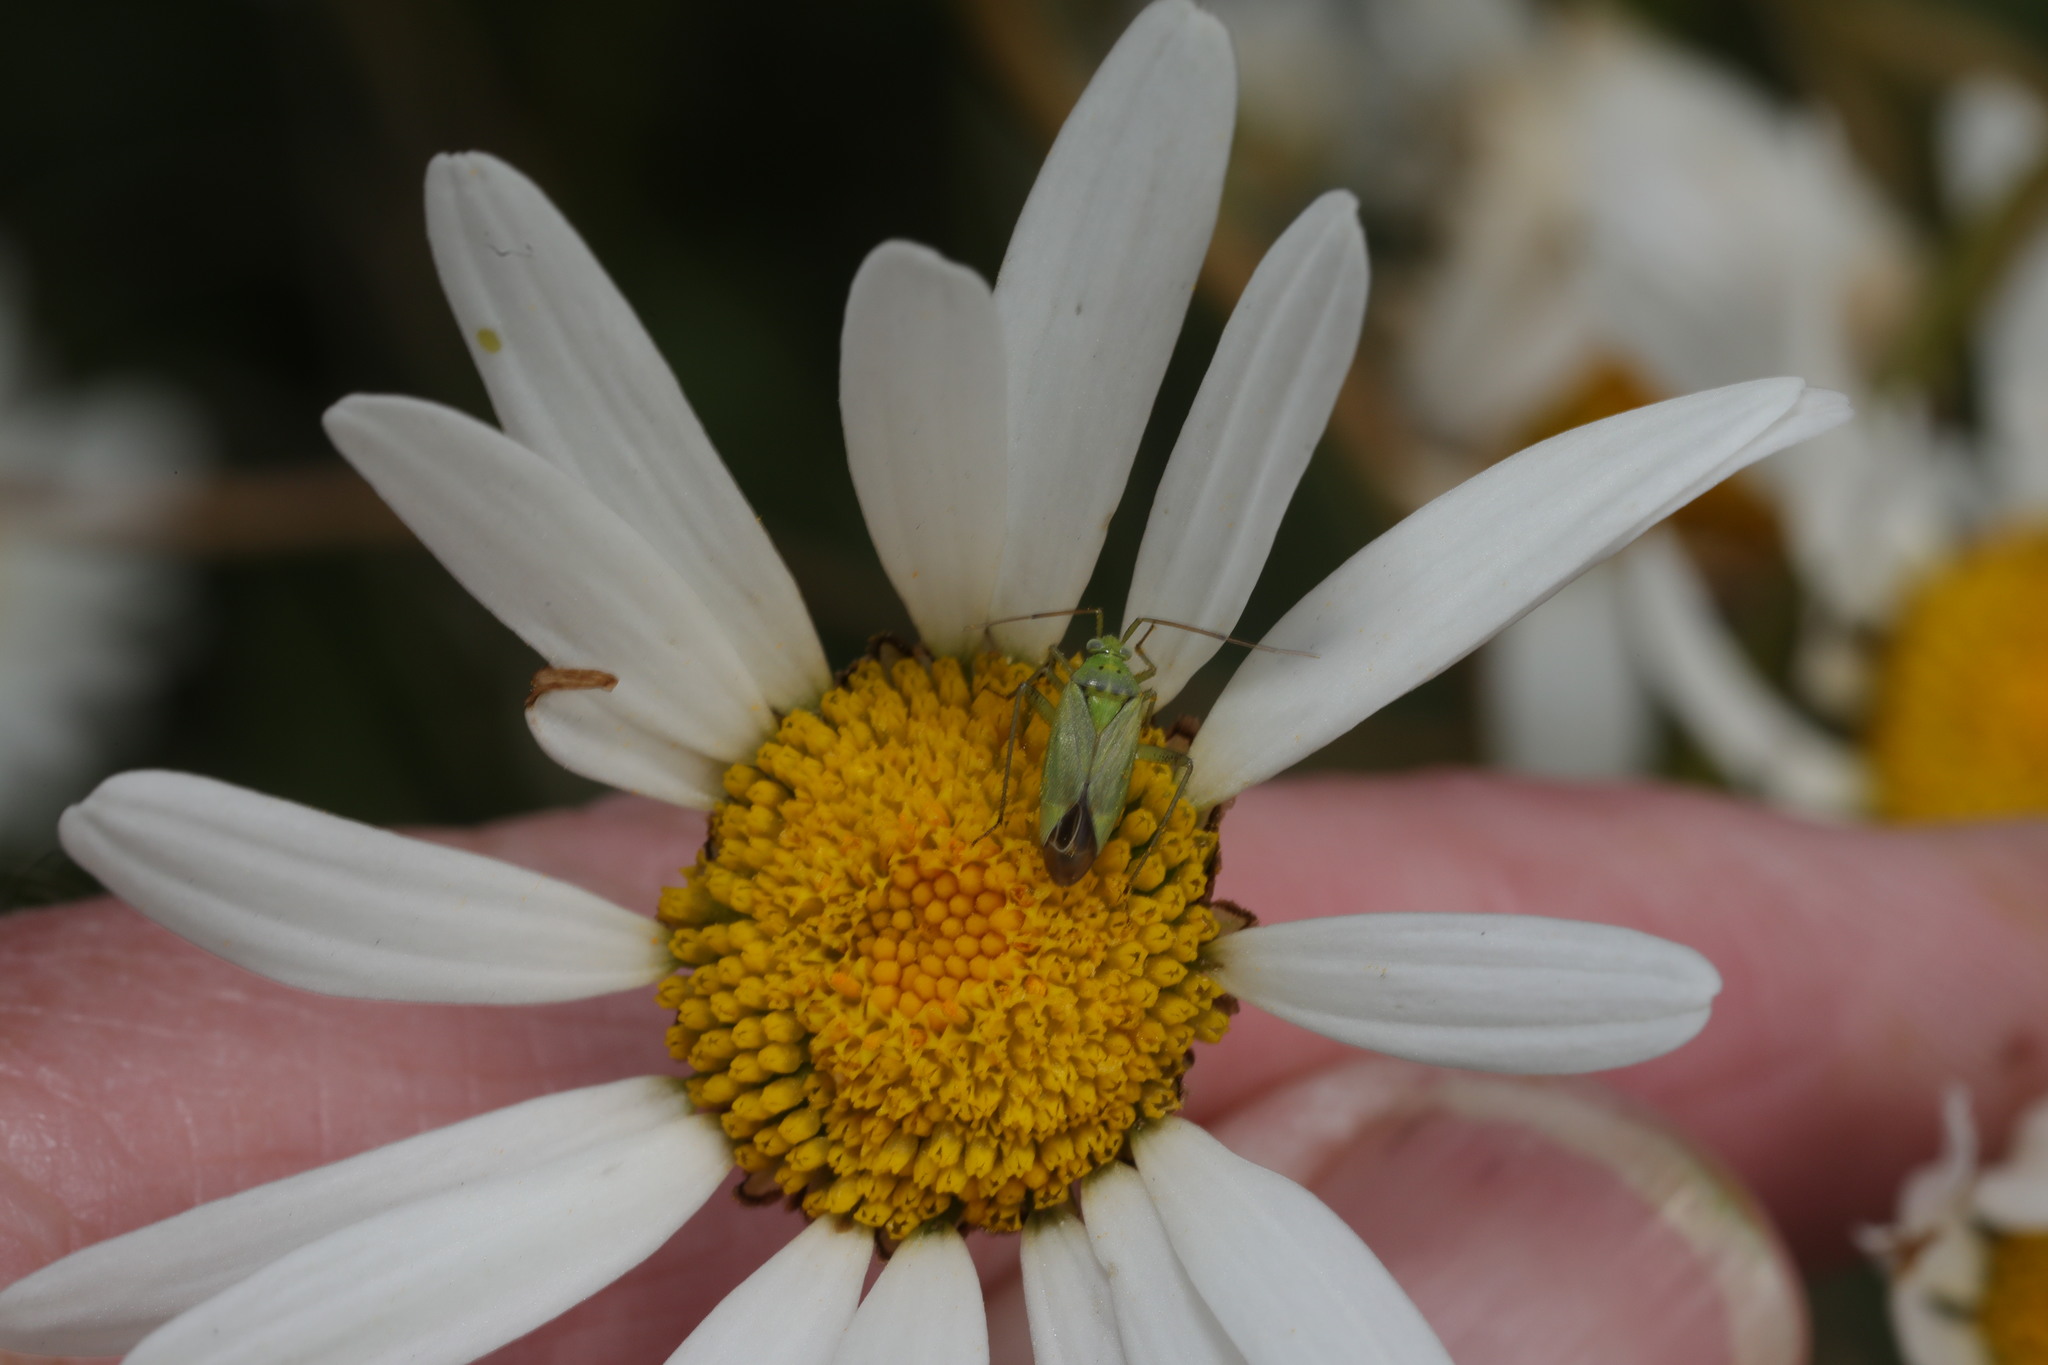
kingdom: Animalia
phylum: Arthropoda
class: Insecta
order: Hemiptera
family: Miridae
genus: Closterotomus
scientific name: Closterotomus norvegicus
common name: Plant bug
